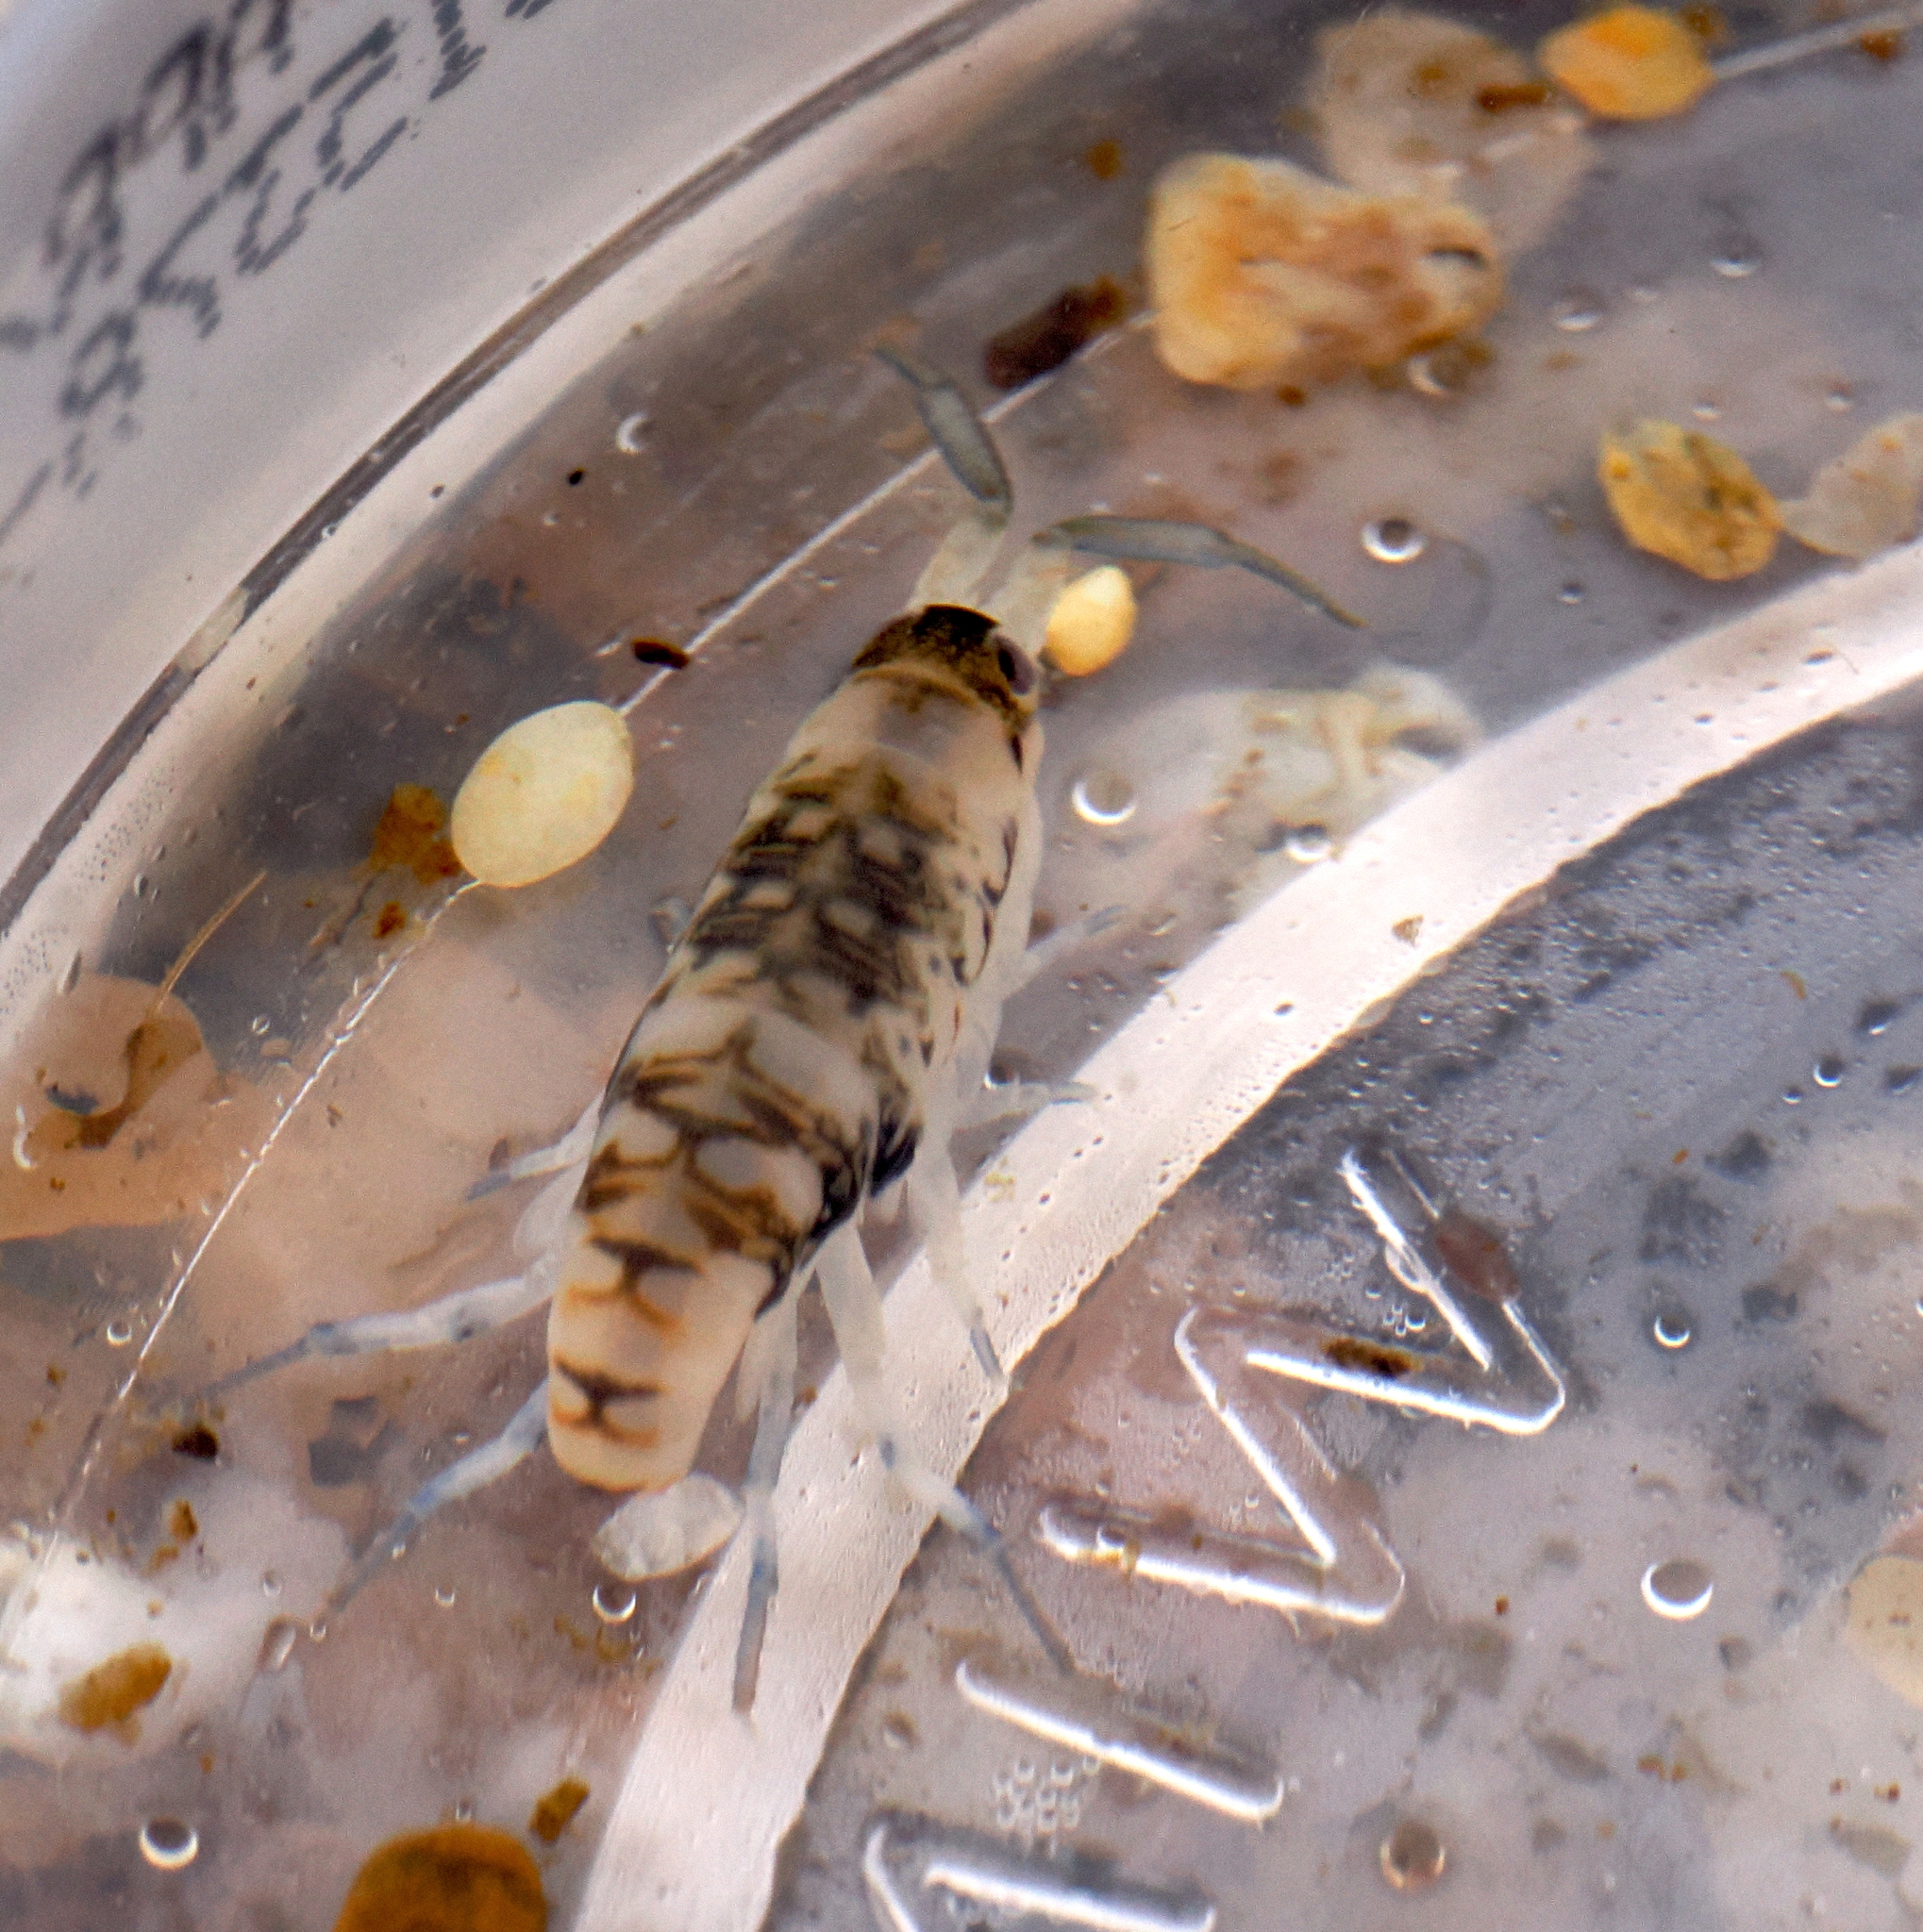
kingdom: Animalia
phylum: Arthropoda
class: Malacostraca
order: Amphipoda
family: Talitridae
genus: Megalorchestia
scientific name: Megalorchestia pugettensis
